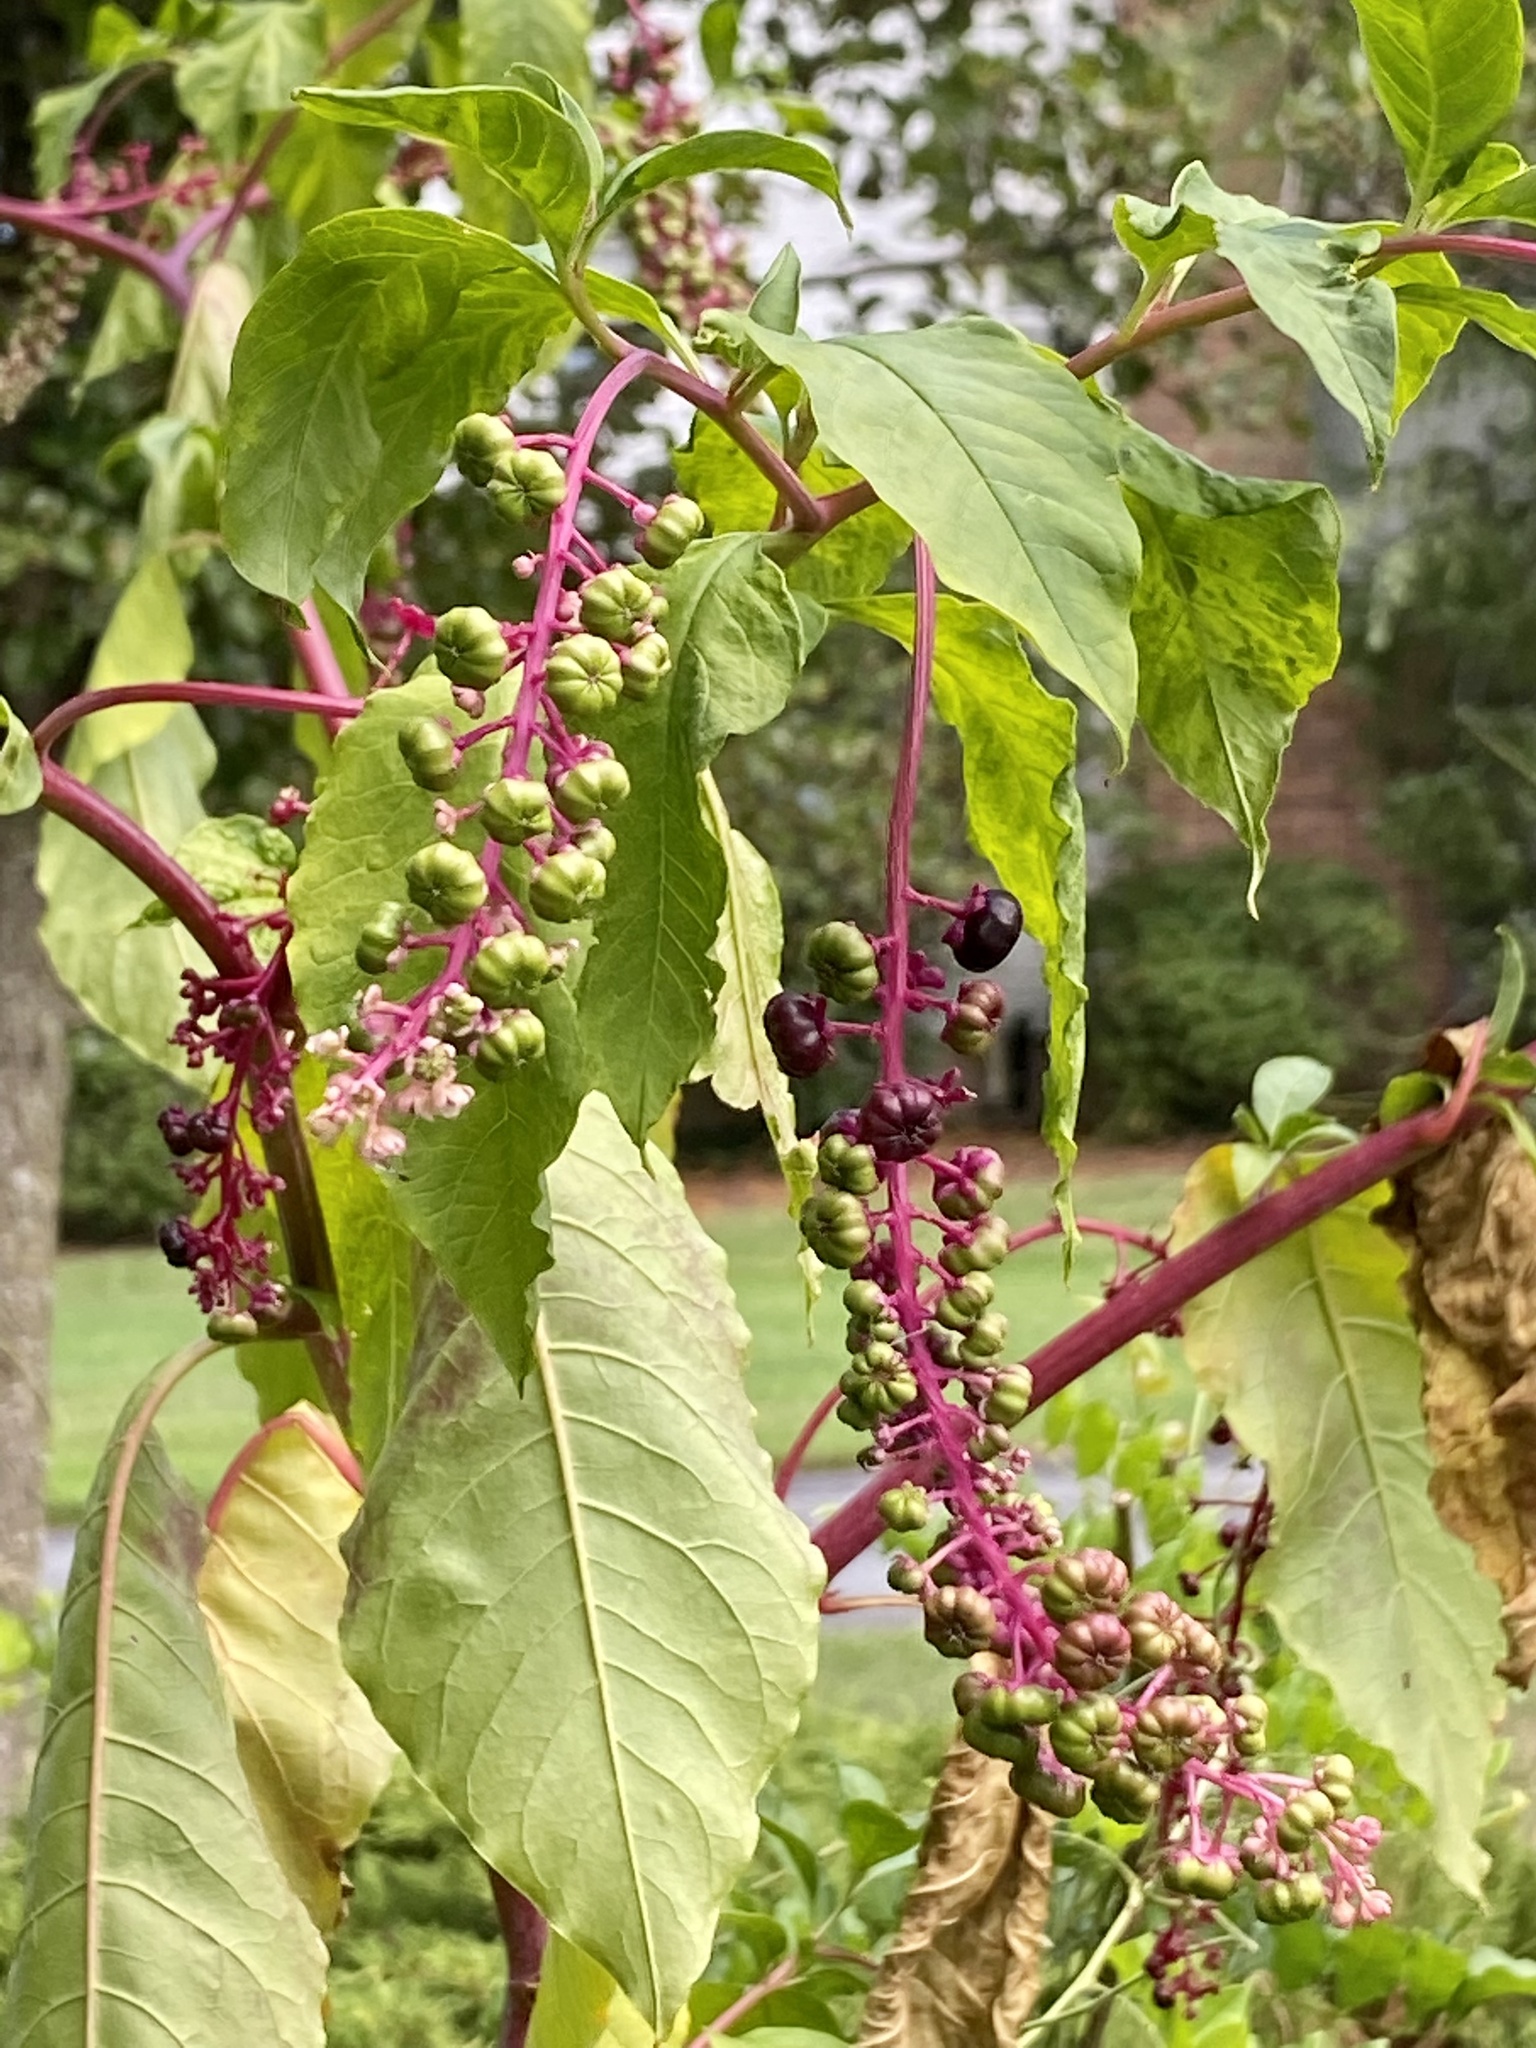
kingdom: Plantae
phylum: Tracheophyta
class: Magnoliopsida
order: Caryophyllales
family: Phytolaccaceae
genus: Phytolacca
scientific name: Phytolacca americana
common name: American pokeweed
